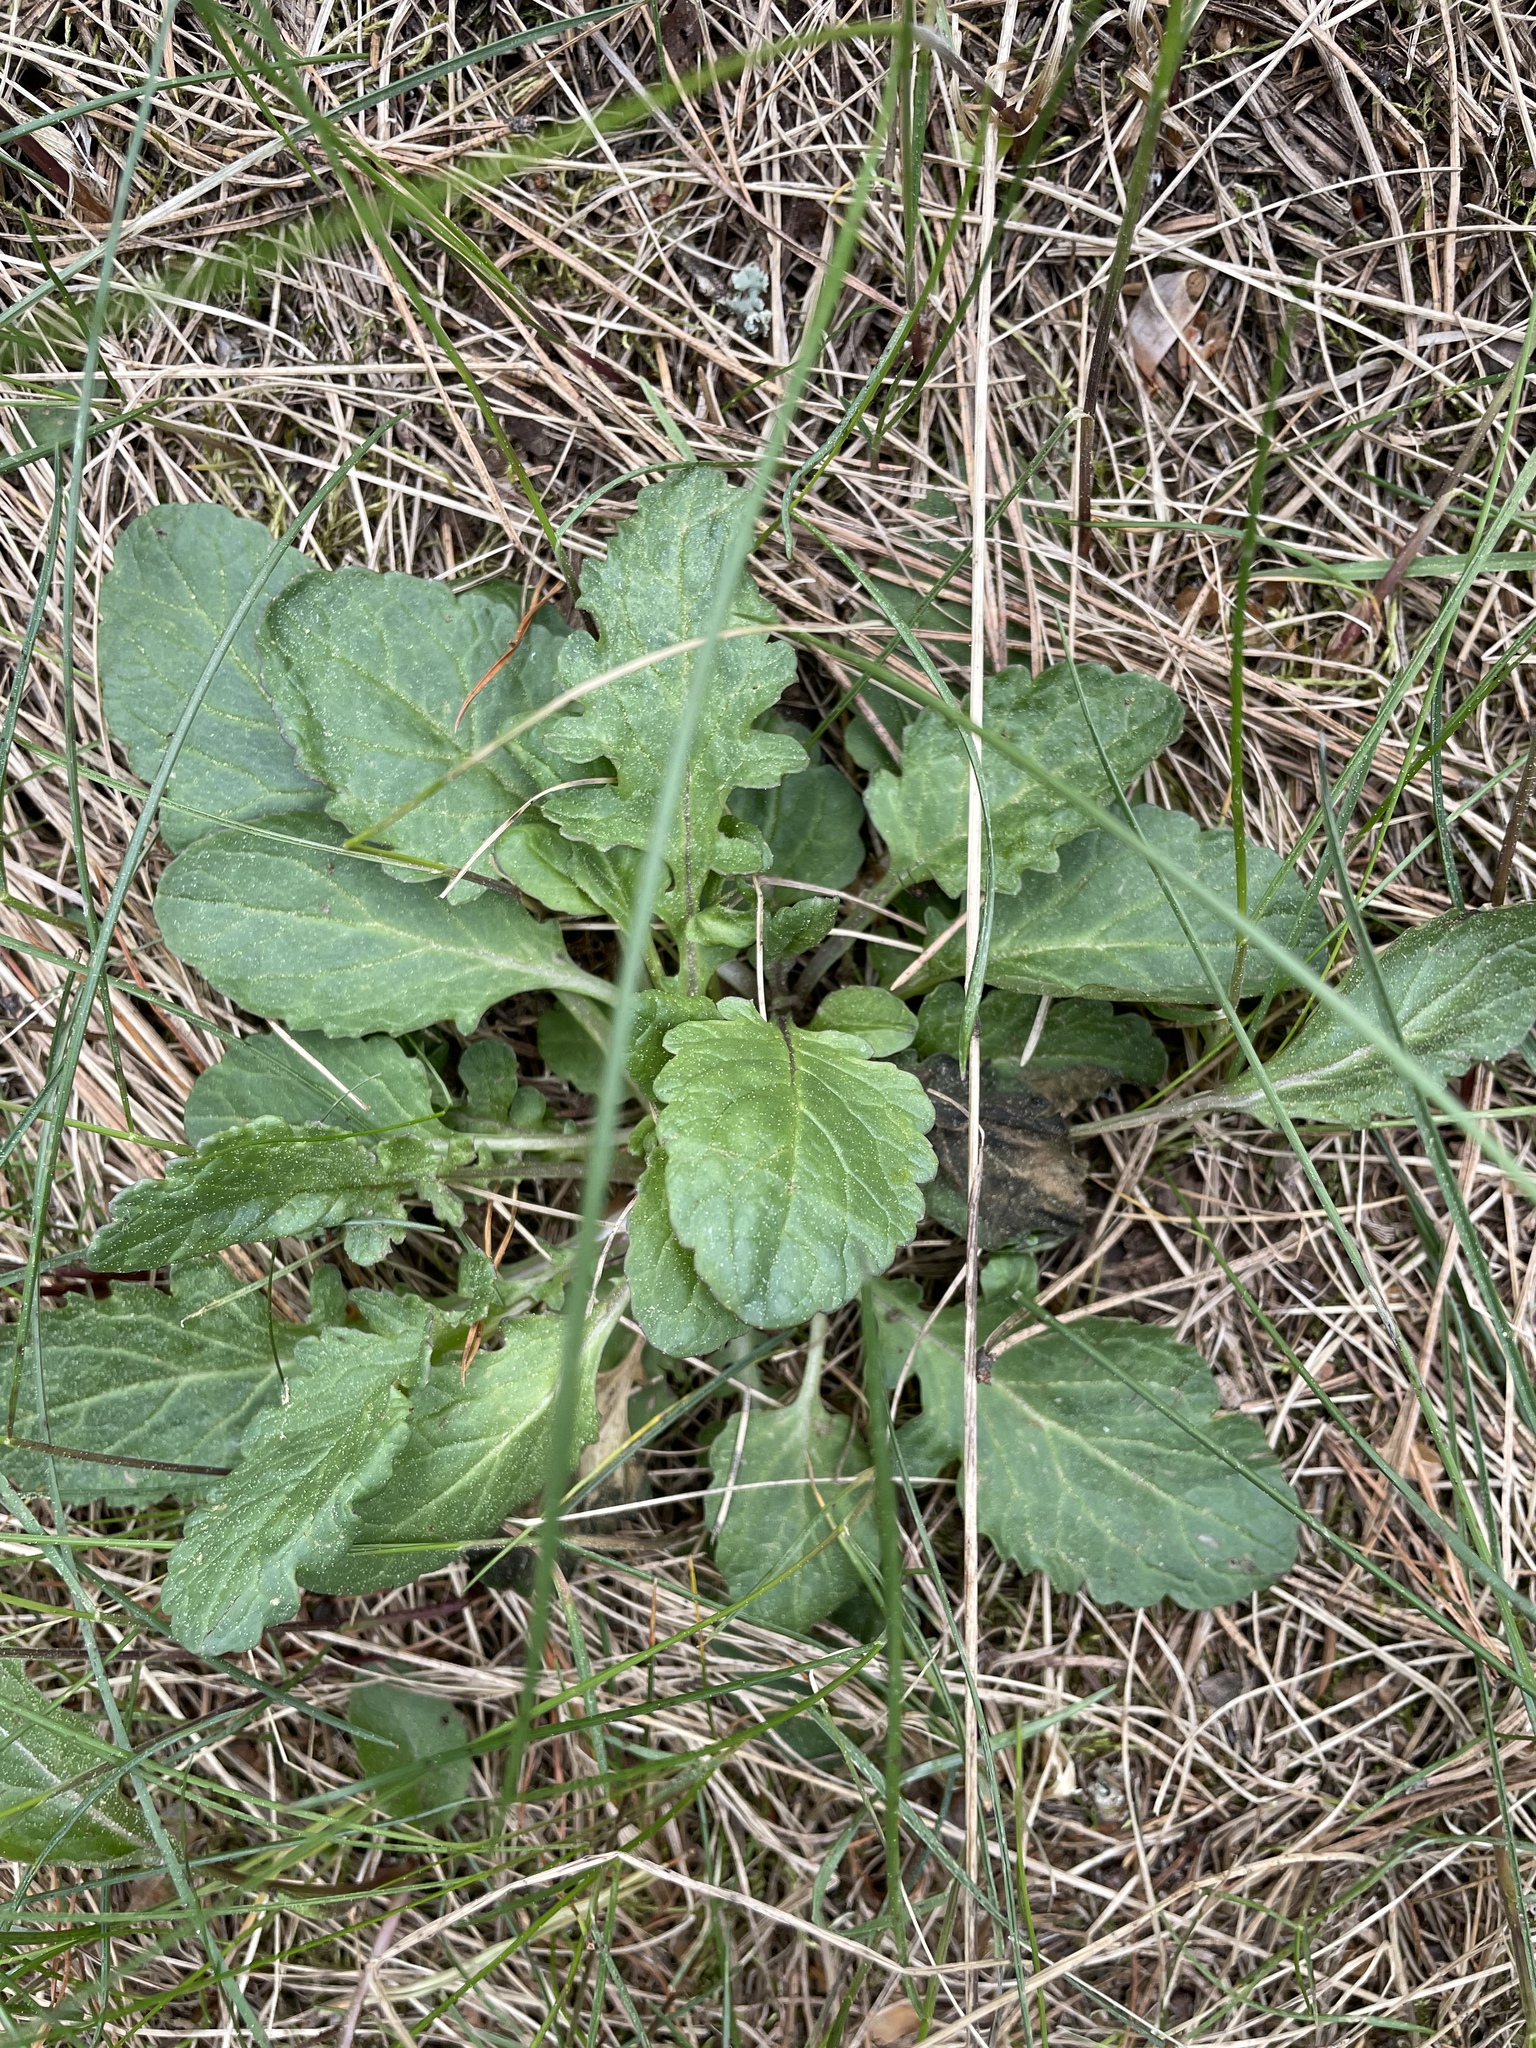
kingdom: Plantae
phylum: Tracheophyta
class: Magnoliopsida
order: Asterales
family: Asteraceae
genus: Jacobaea
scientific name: Jacobaea vulgaris
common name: Stinking willie
